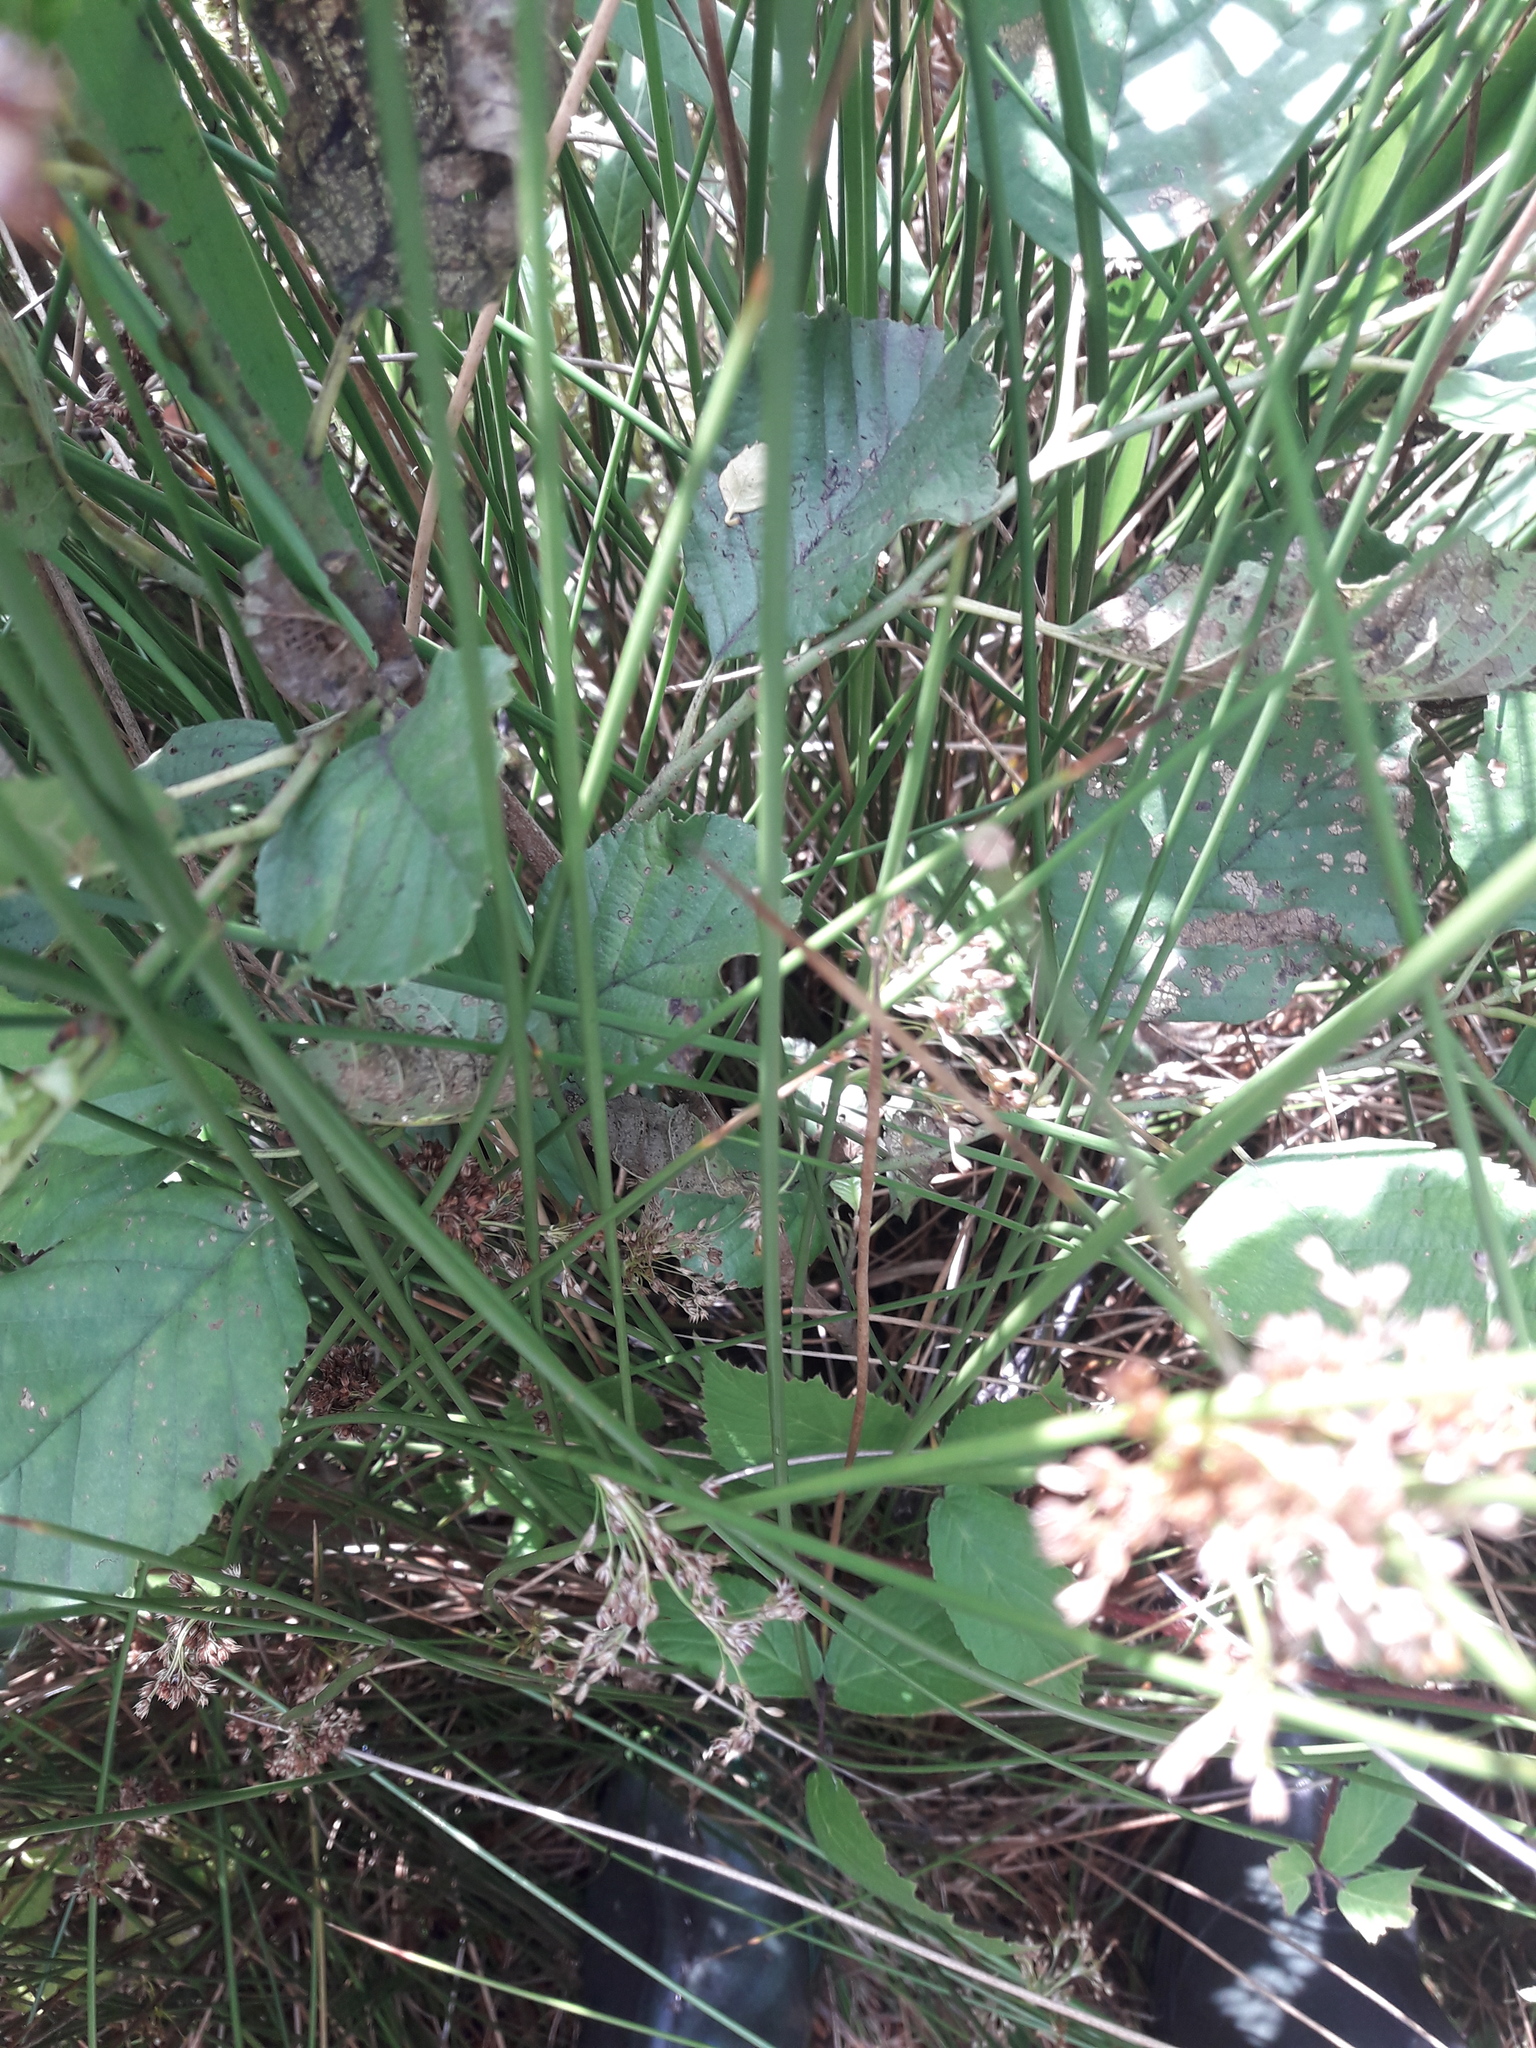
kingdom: Plantae
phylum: Tracheophyta
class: Liliopsida
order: Poales
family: Juncaceae
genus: Juncus
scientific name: Juncus effusus
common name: Soft rush
